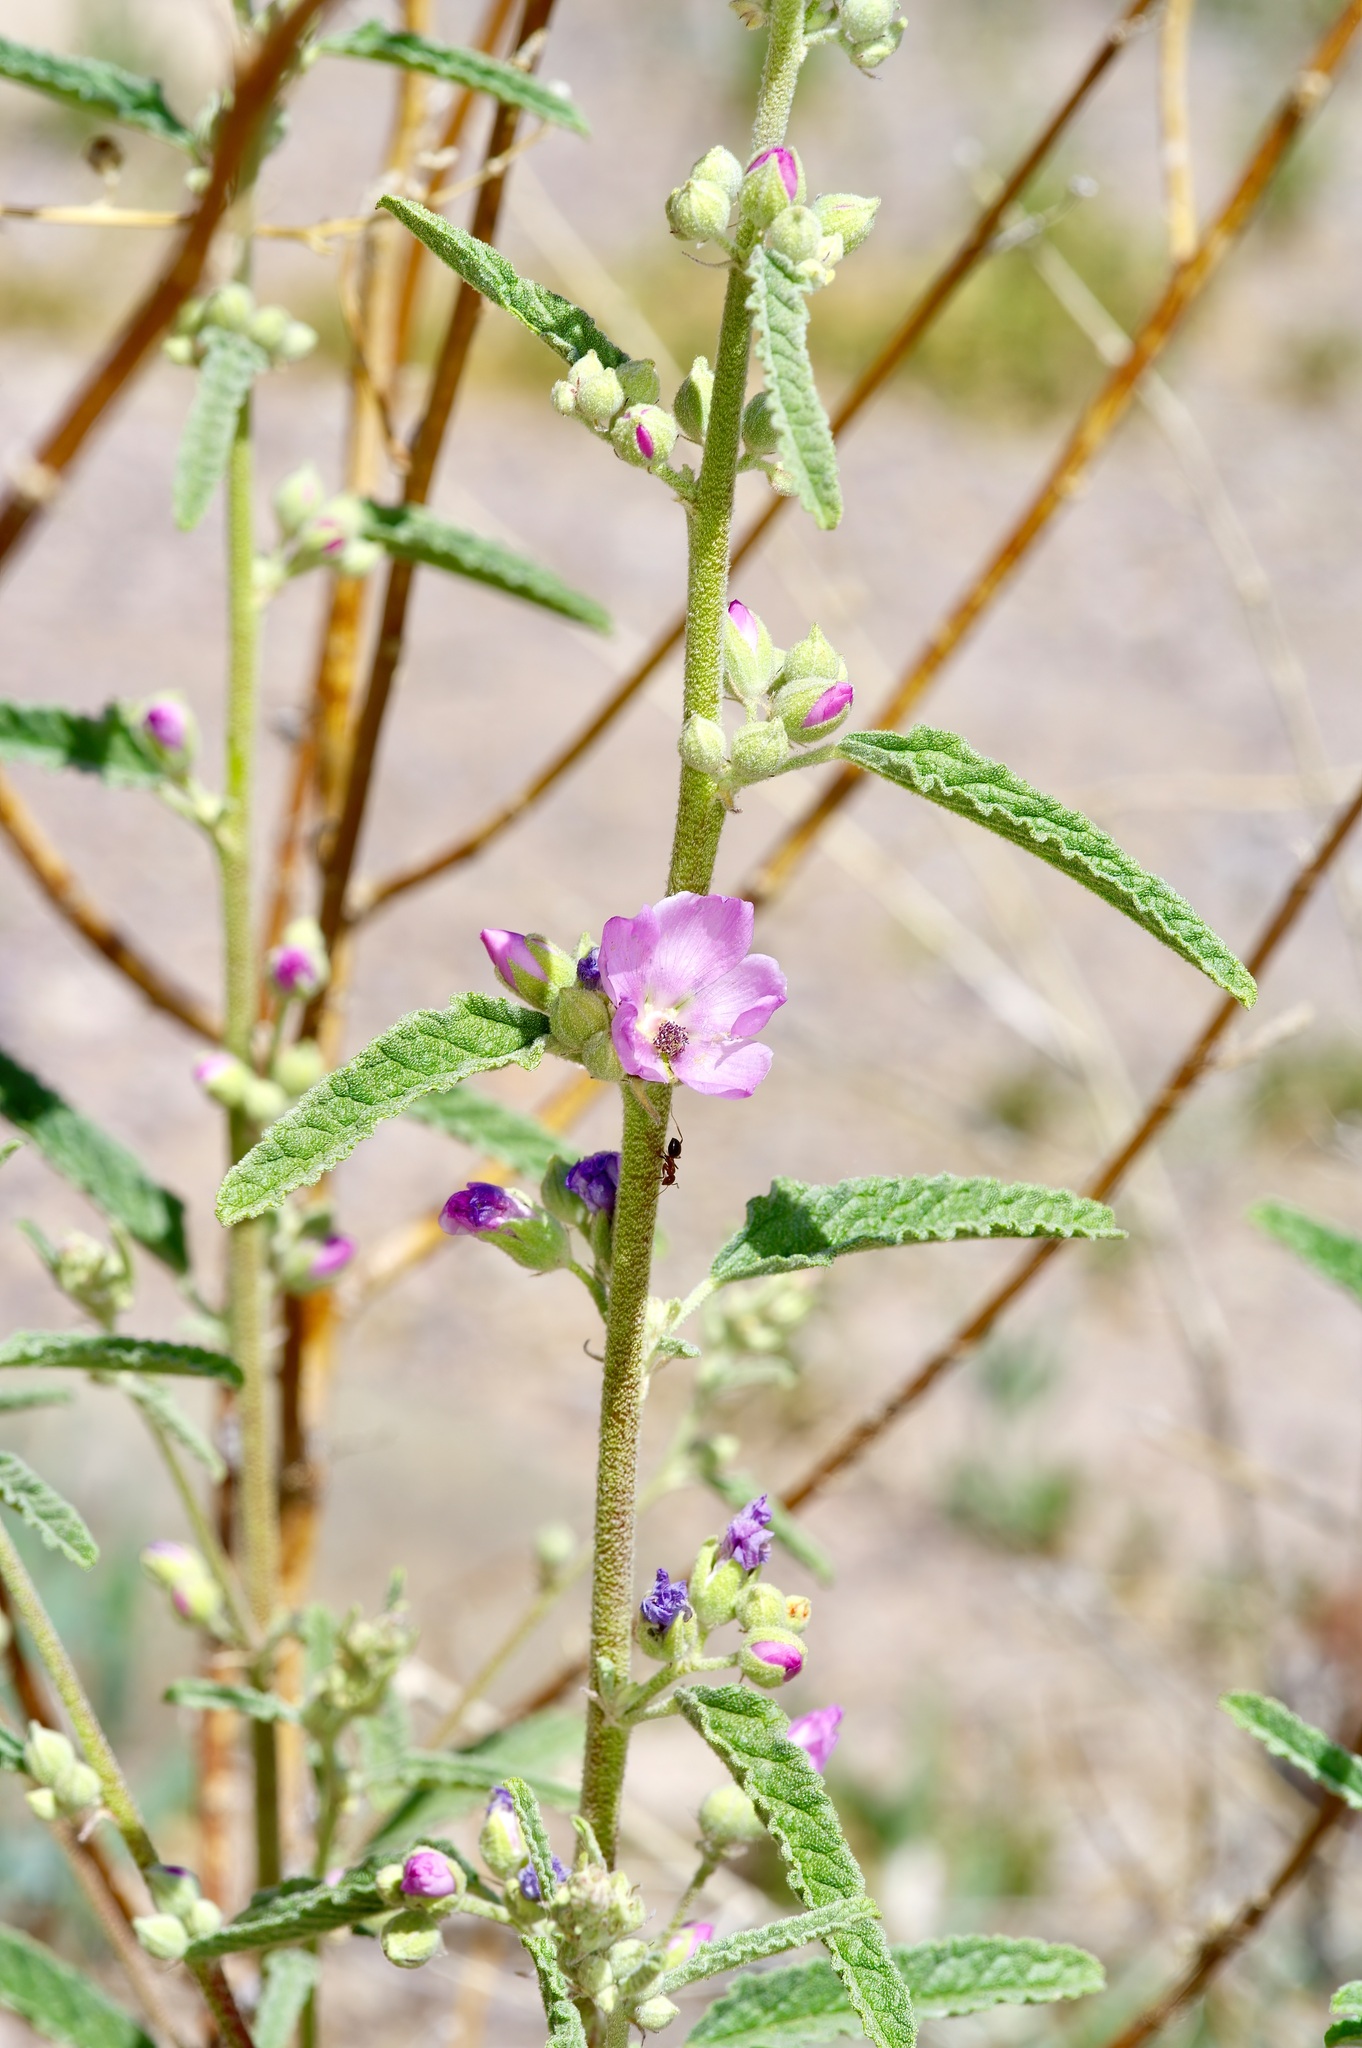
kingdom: Plantae
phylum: Tracheophyta
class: Magnoliopsida
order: Malvales
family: Malvaceae
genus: Sphaeralcea
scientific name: Sphaeralcea angustifolia
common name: Copper globe-mallow
